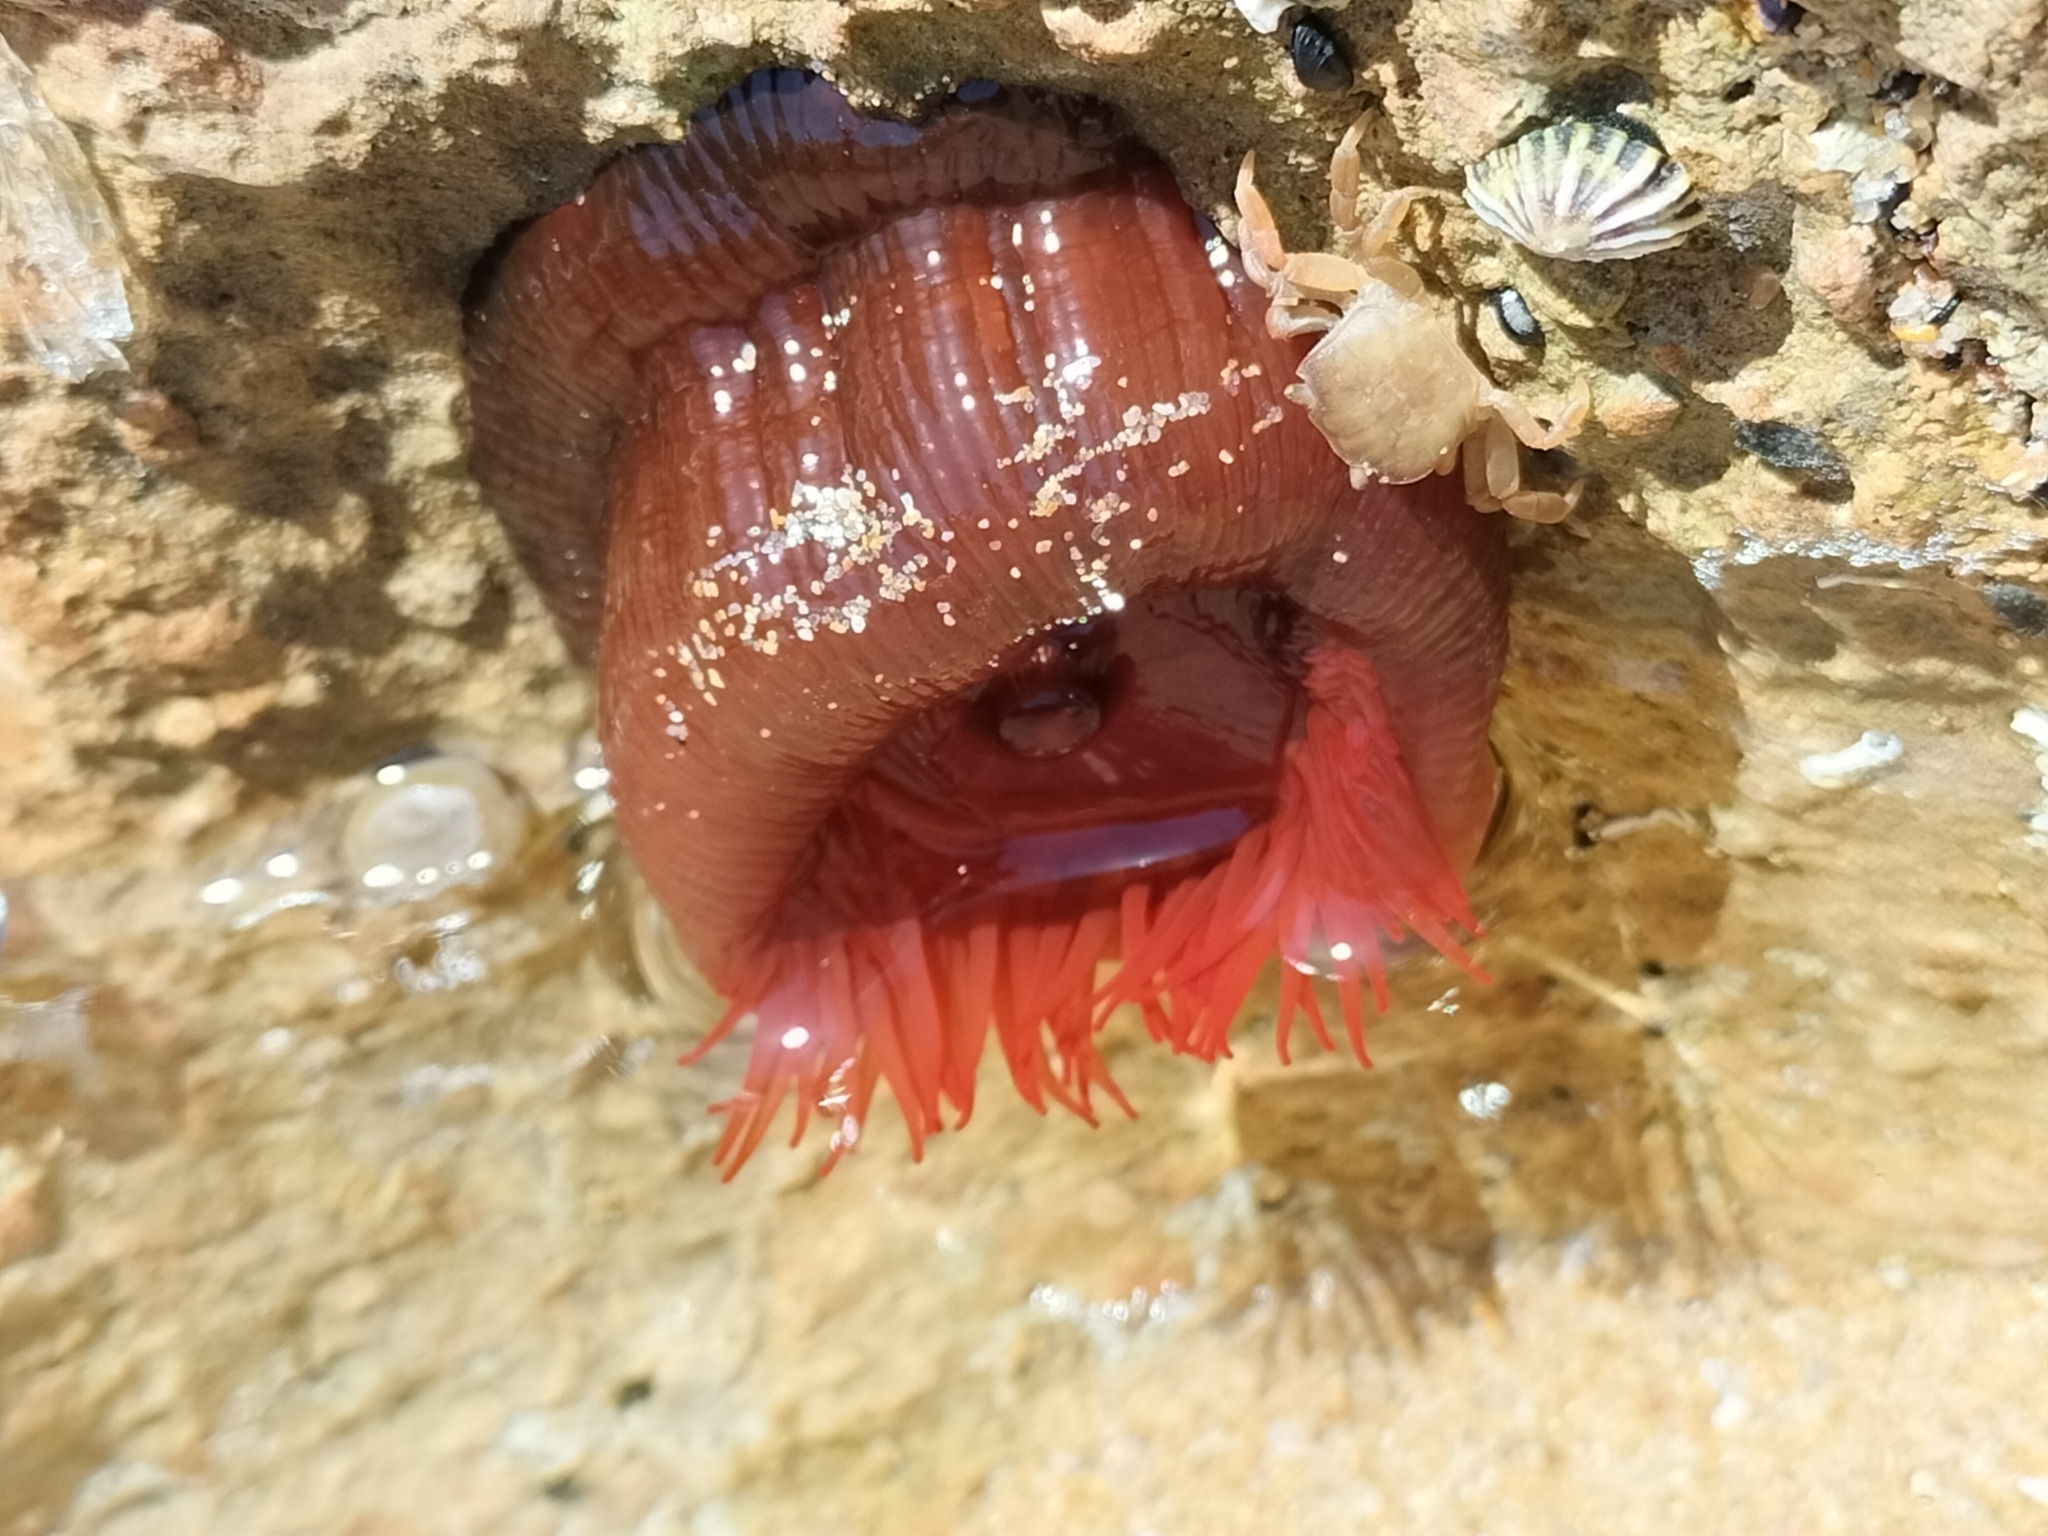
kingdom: Animalia
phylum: Cnidaria
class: Anthozoa
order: Actiniaria
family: Actiniidae
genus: Actinia
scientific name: Actinia tenebrosa
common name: Waratah anemone
